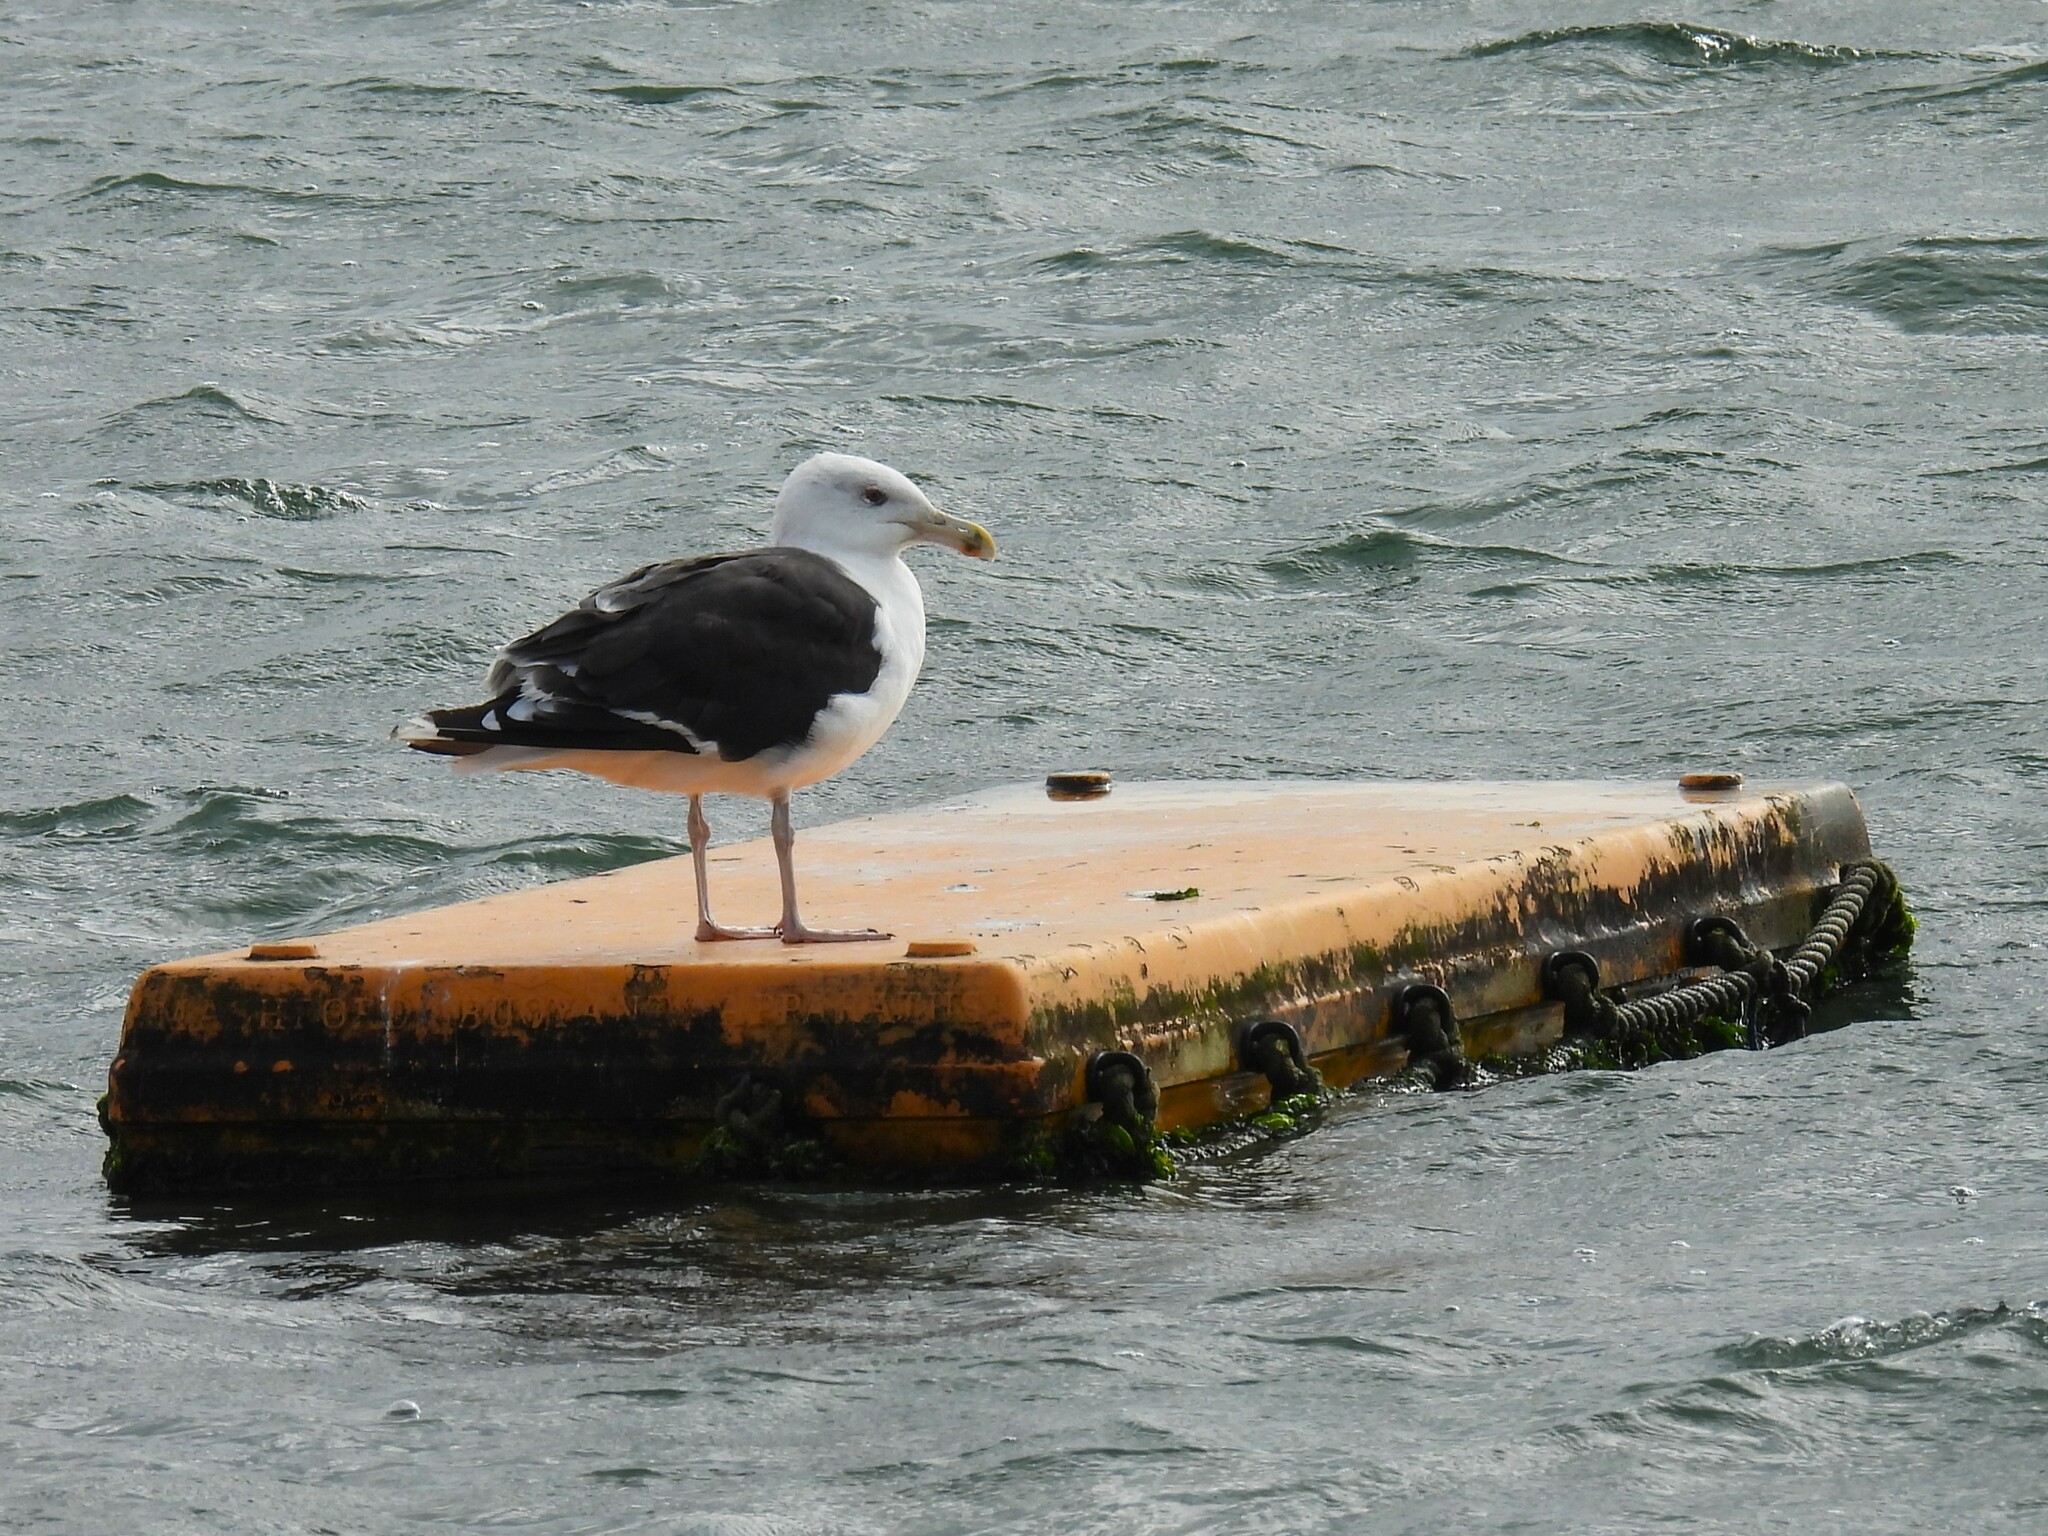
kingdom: Animalia
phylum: Chordata
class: Aves
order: Charadriiformes
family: Laridae
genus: Larus
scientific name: Larus marinus
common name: Great black-backed gull
